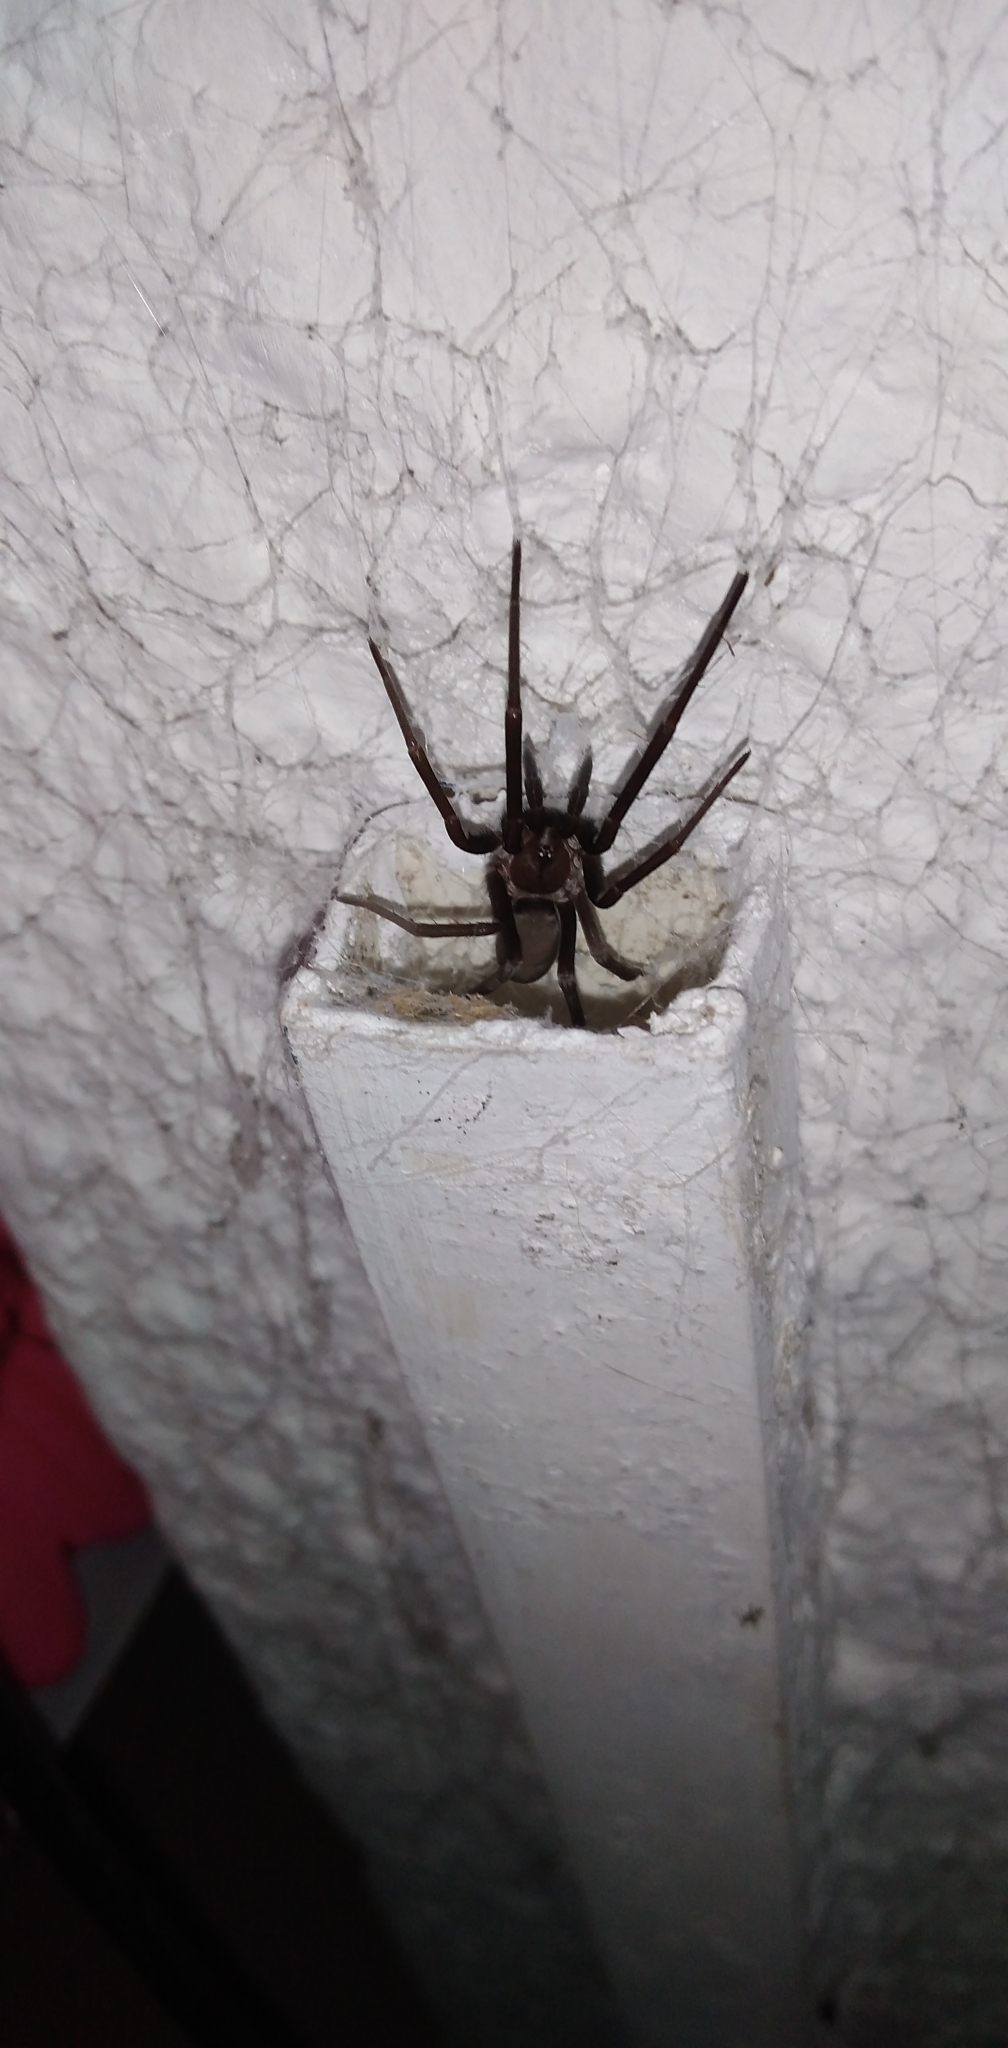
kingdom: Animalia
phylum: Arthropoda
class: Arachnida
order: Araneae
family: Filistatidae
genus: Kukulcania
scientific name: Kukulcania hibernalis
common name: Crevice weaver
